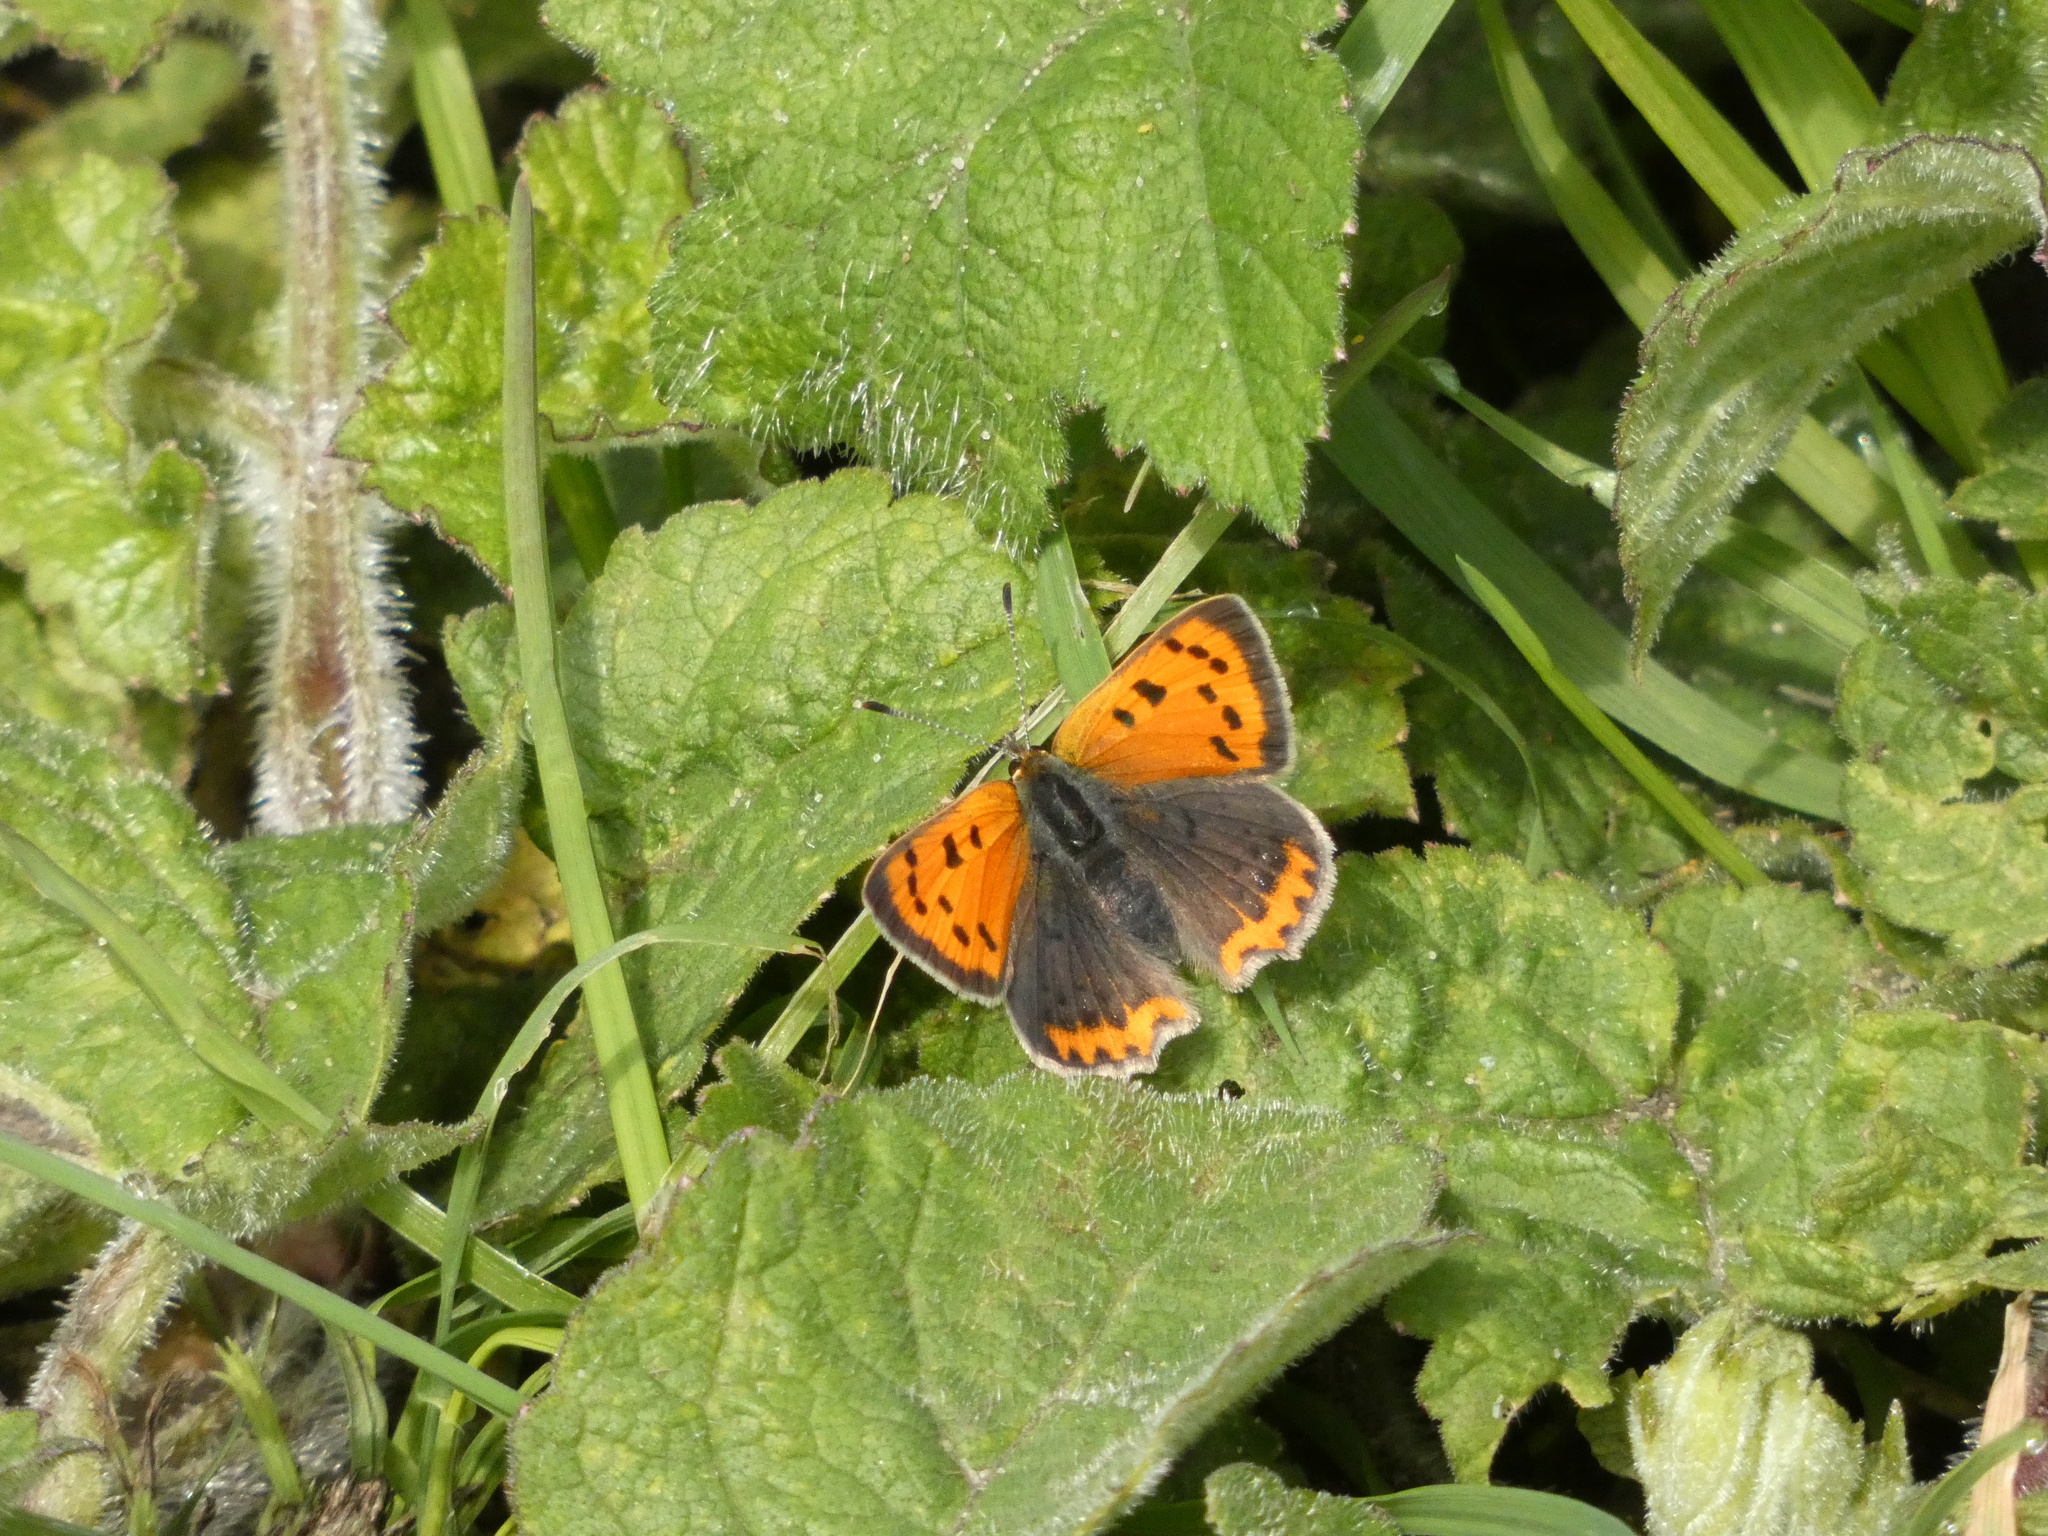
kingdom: Animalia
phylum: Arthropoda
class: Insecta
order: Lepidoptera
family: Lycaenidae
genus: Lycaena
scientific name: Lycaena phlaeas
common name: Small copper
